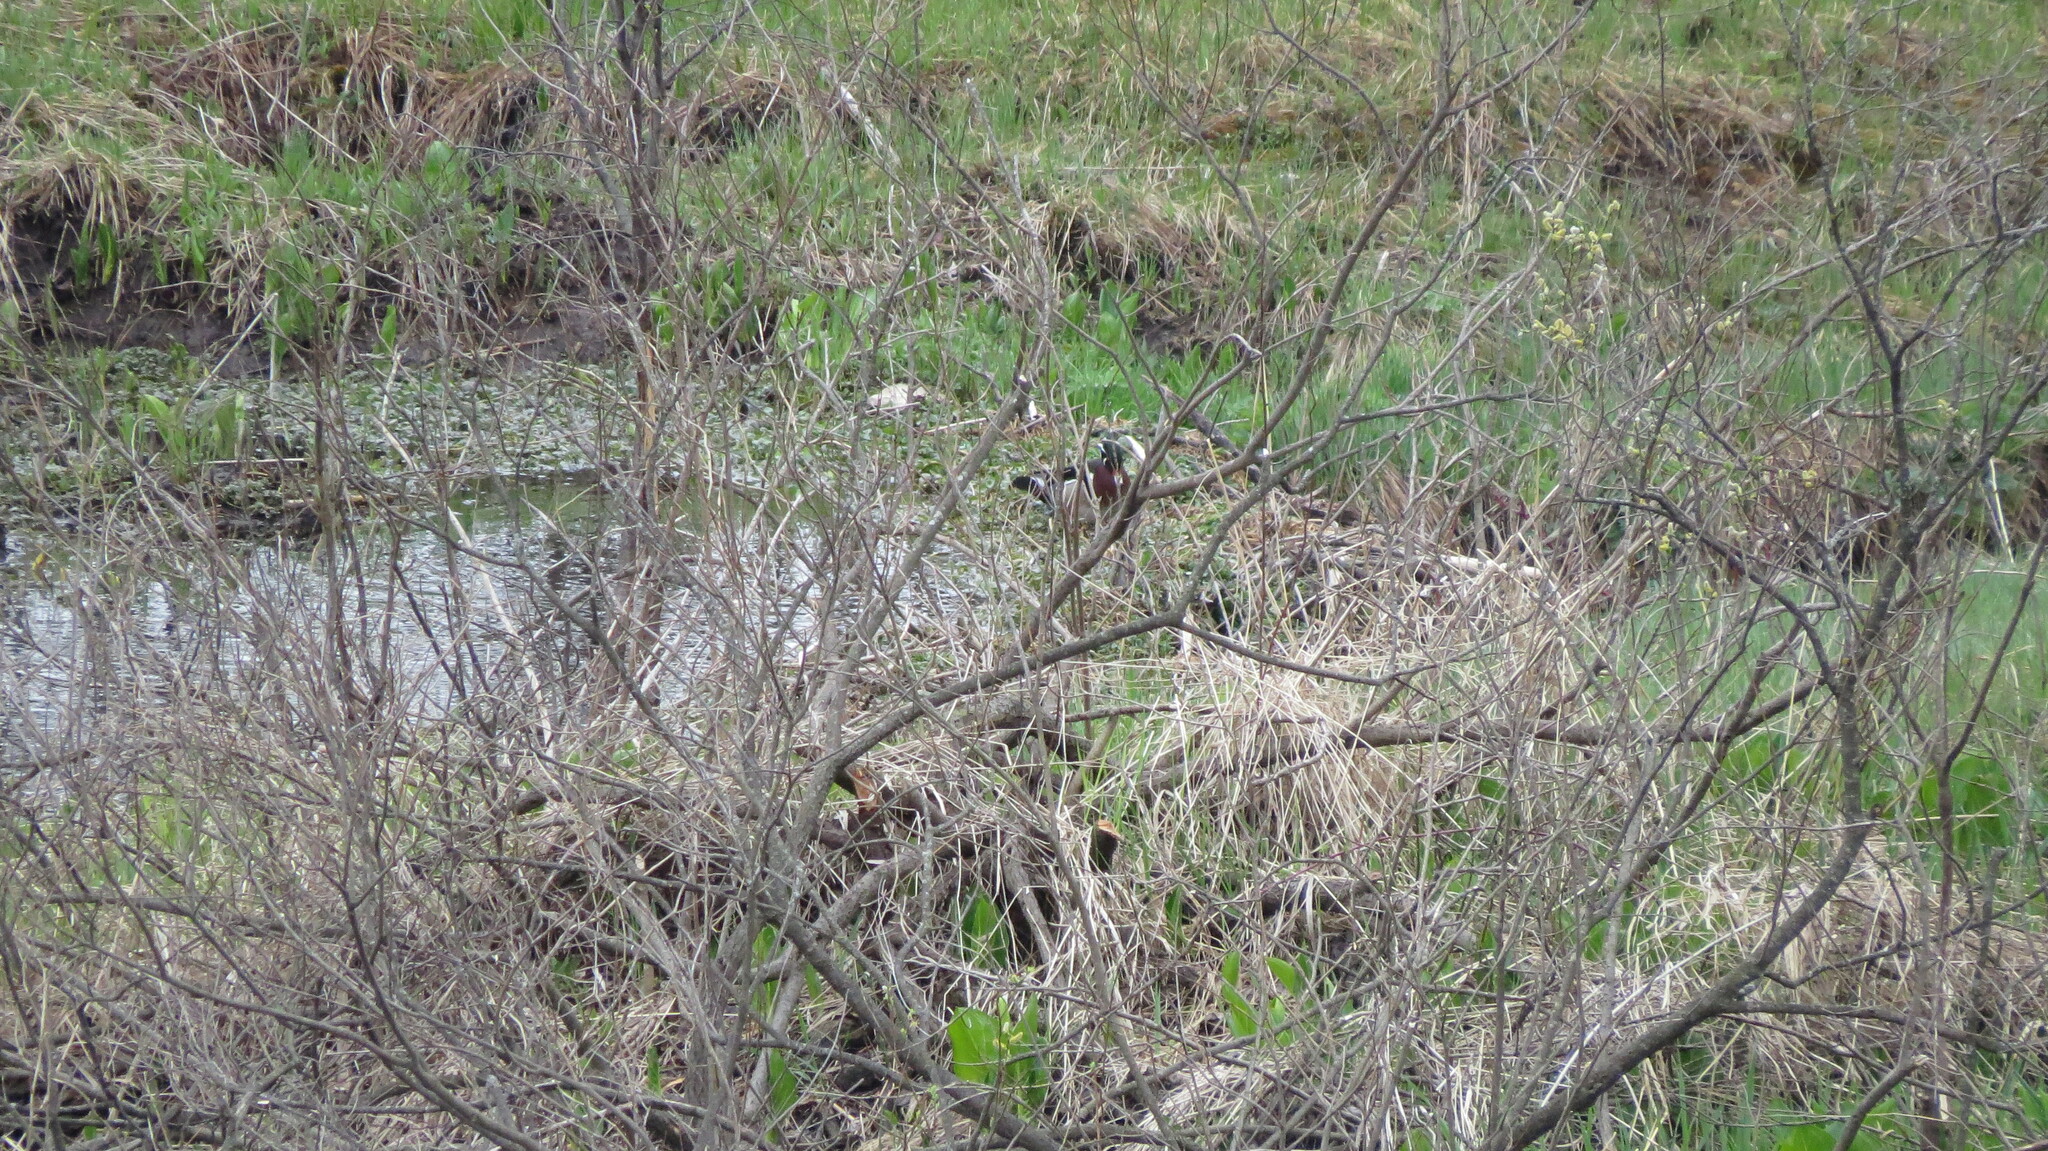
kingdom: Animalia
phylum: Chordata
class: Aves
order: Anseriformes
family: Anatidae
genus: Aix
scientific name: Aix sponsa
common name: Wood duck
